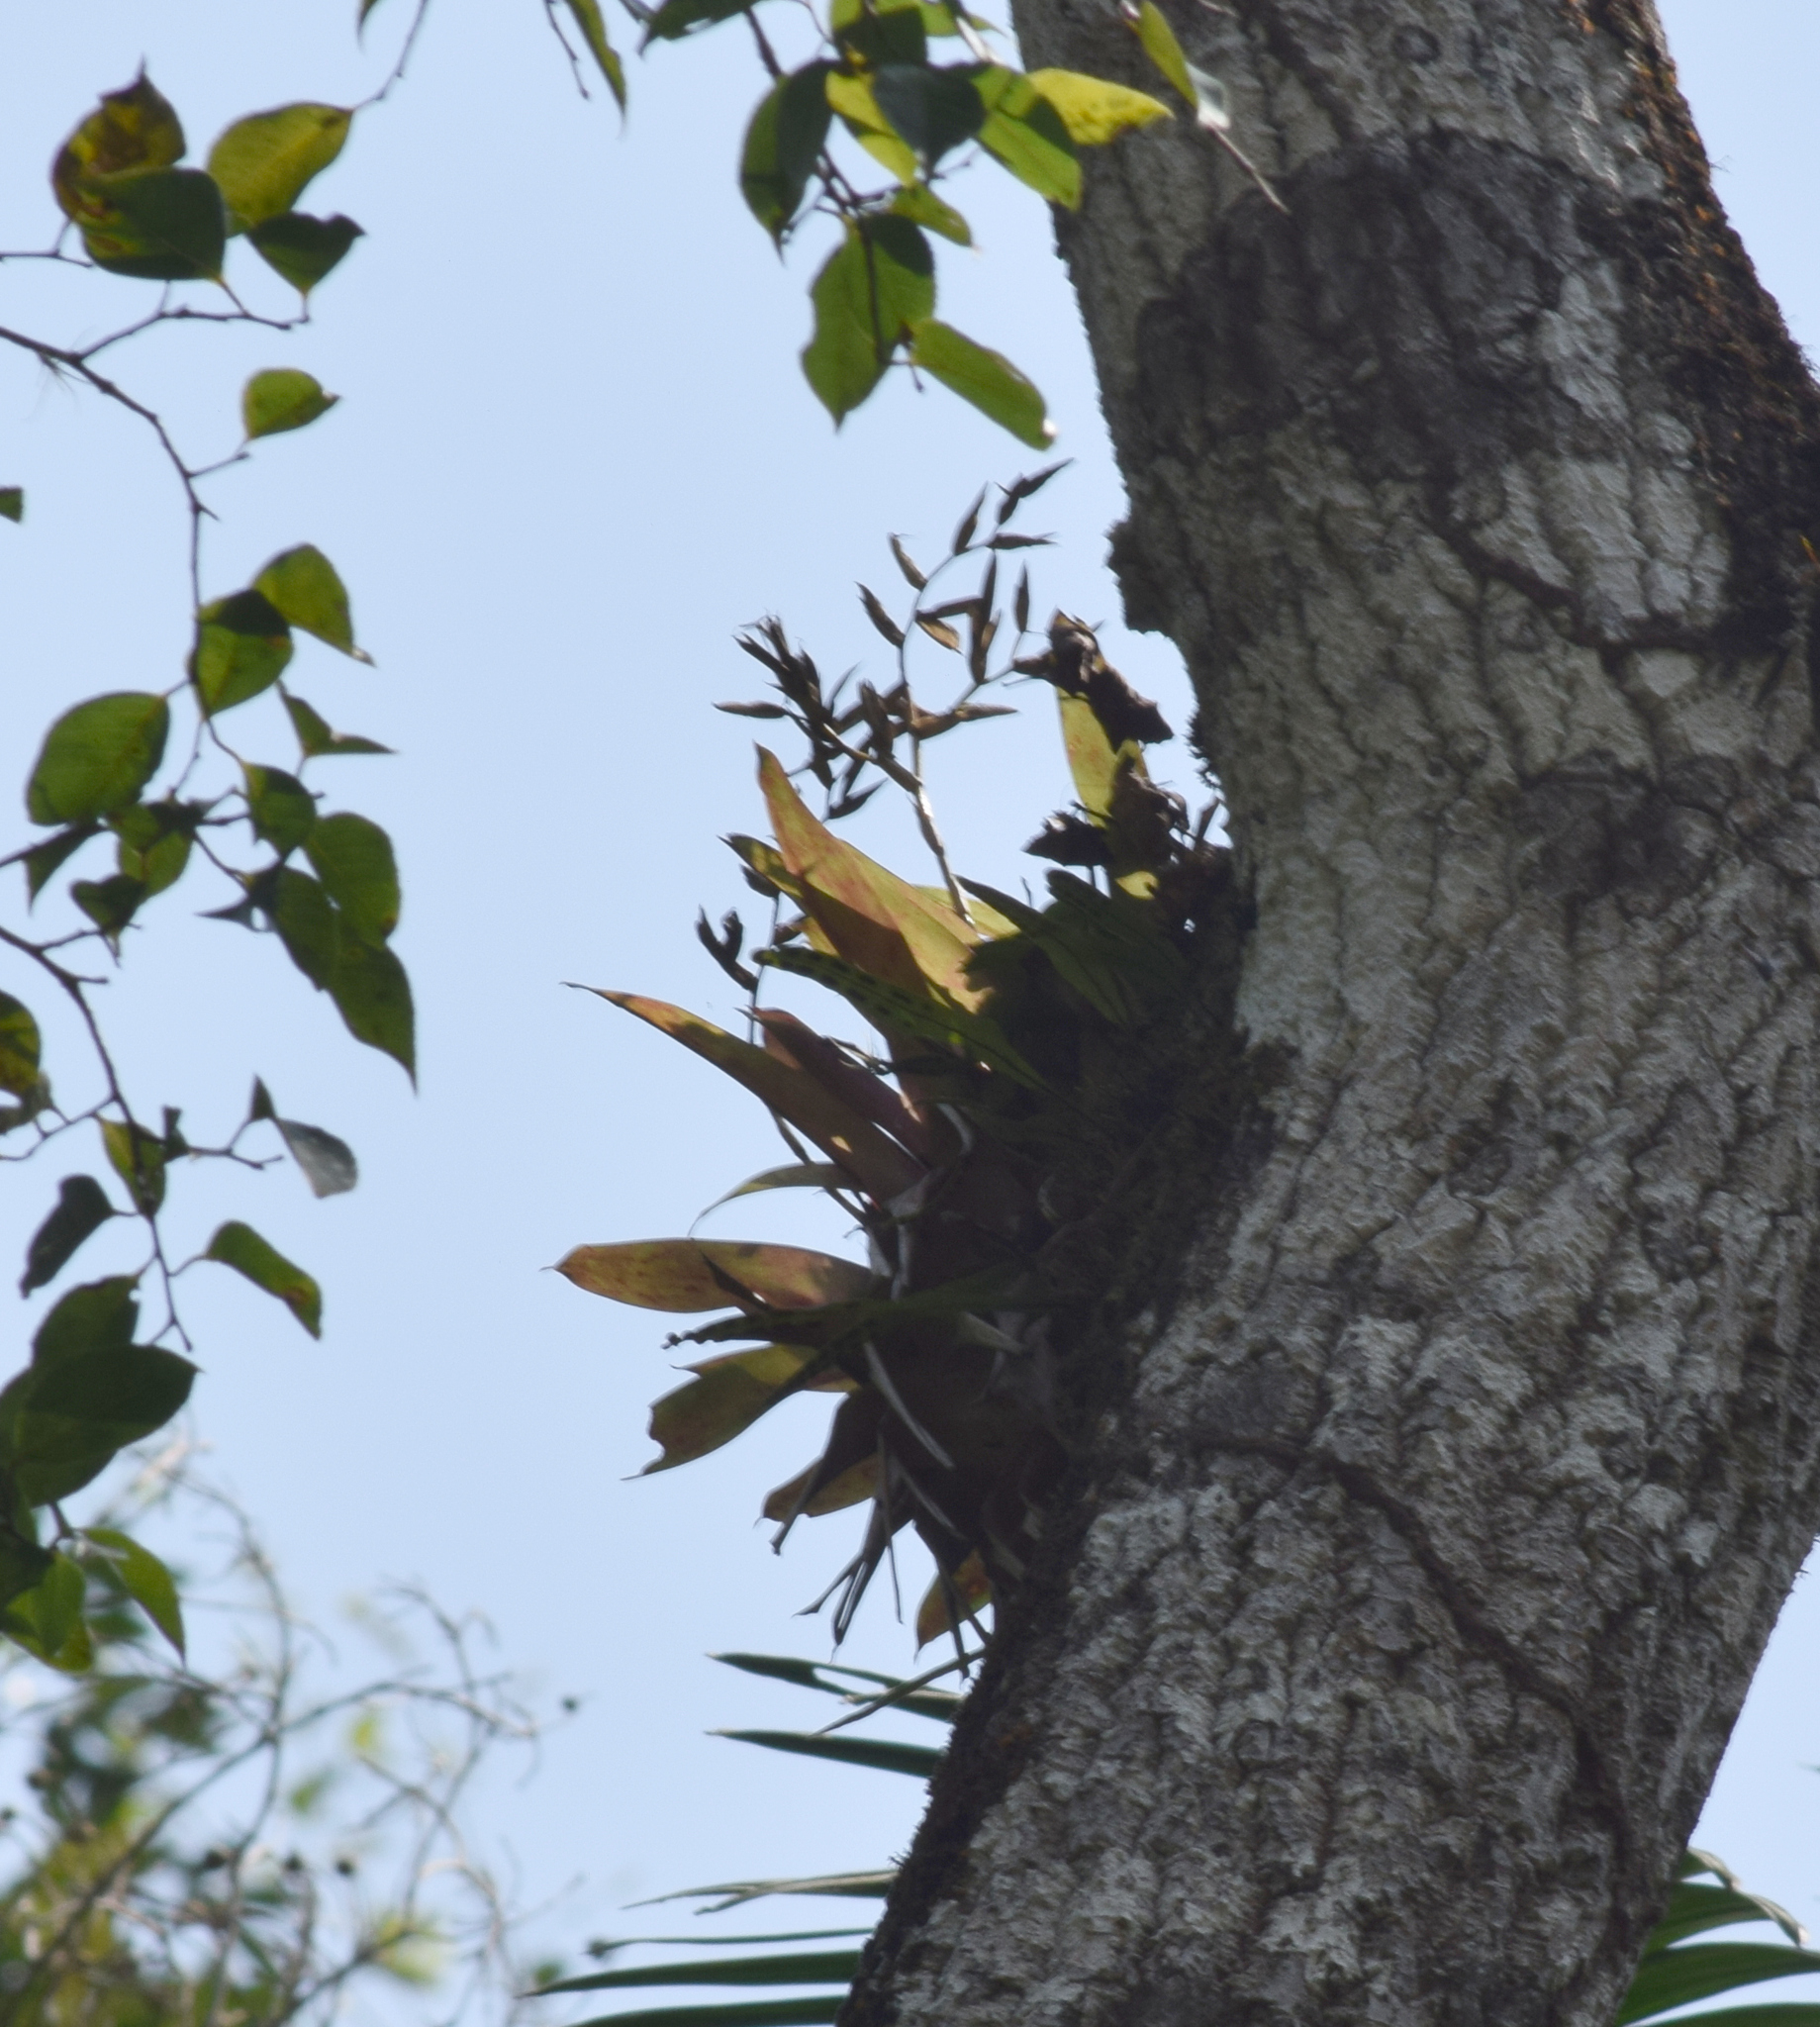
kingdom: Plantae
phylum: Tracheophyta
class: Liliopsida
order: Poales
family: Bromeliaceae
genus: Vriesea
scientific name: Vriesea rodigasiana
